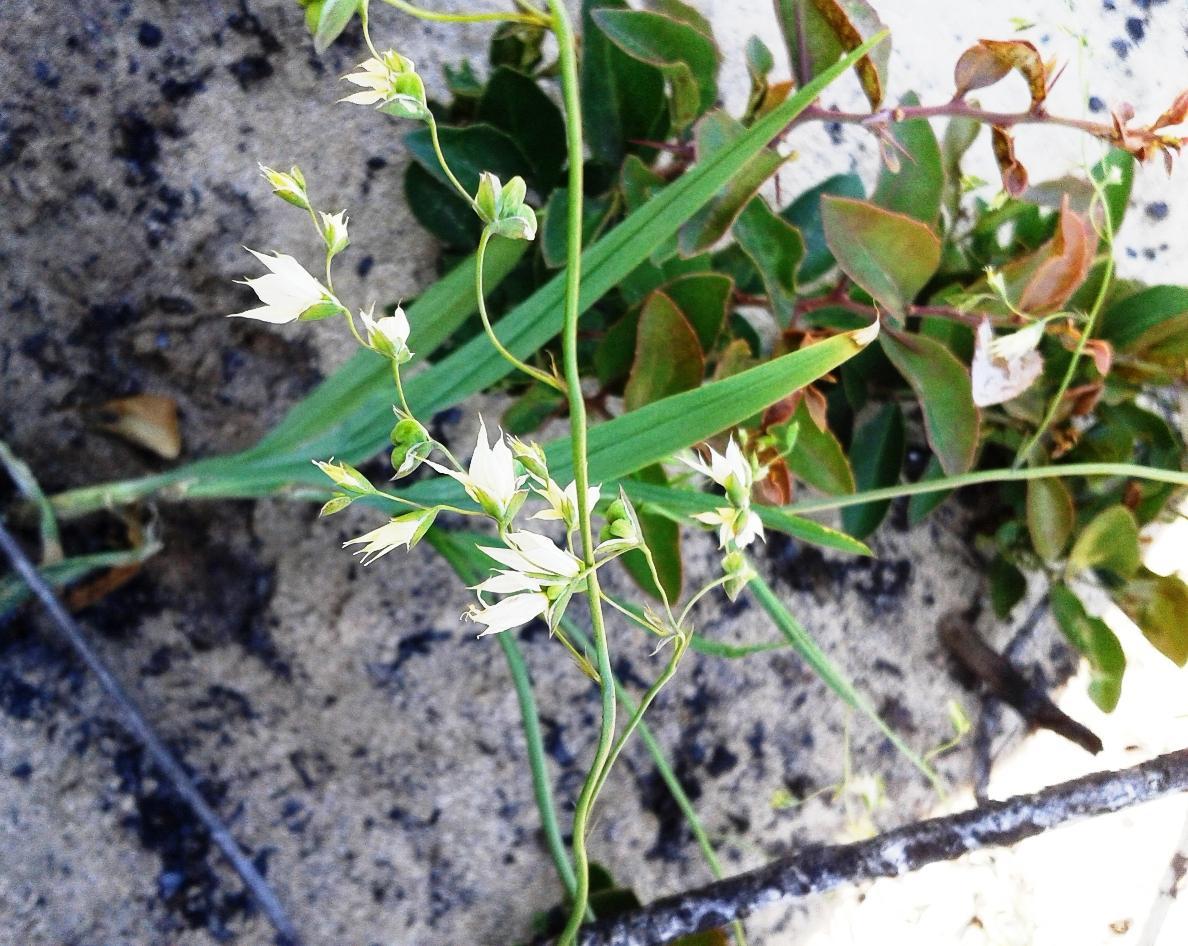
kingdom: Plantae
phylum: Tracheophyta
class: Liliopsida
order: Asparagales
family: Iridaceae
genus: Melasphaerula
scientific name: Melasphaerula graminea
